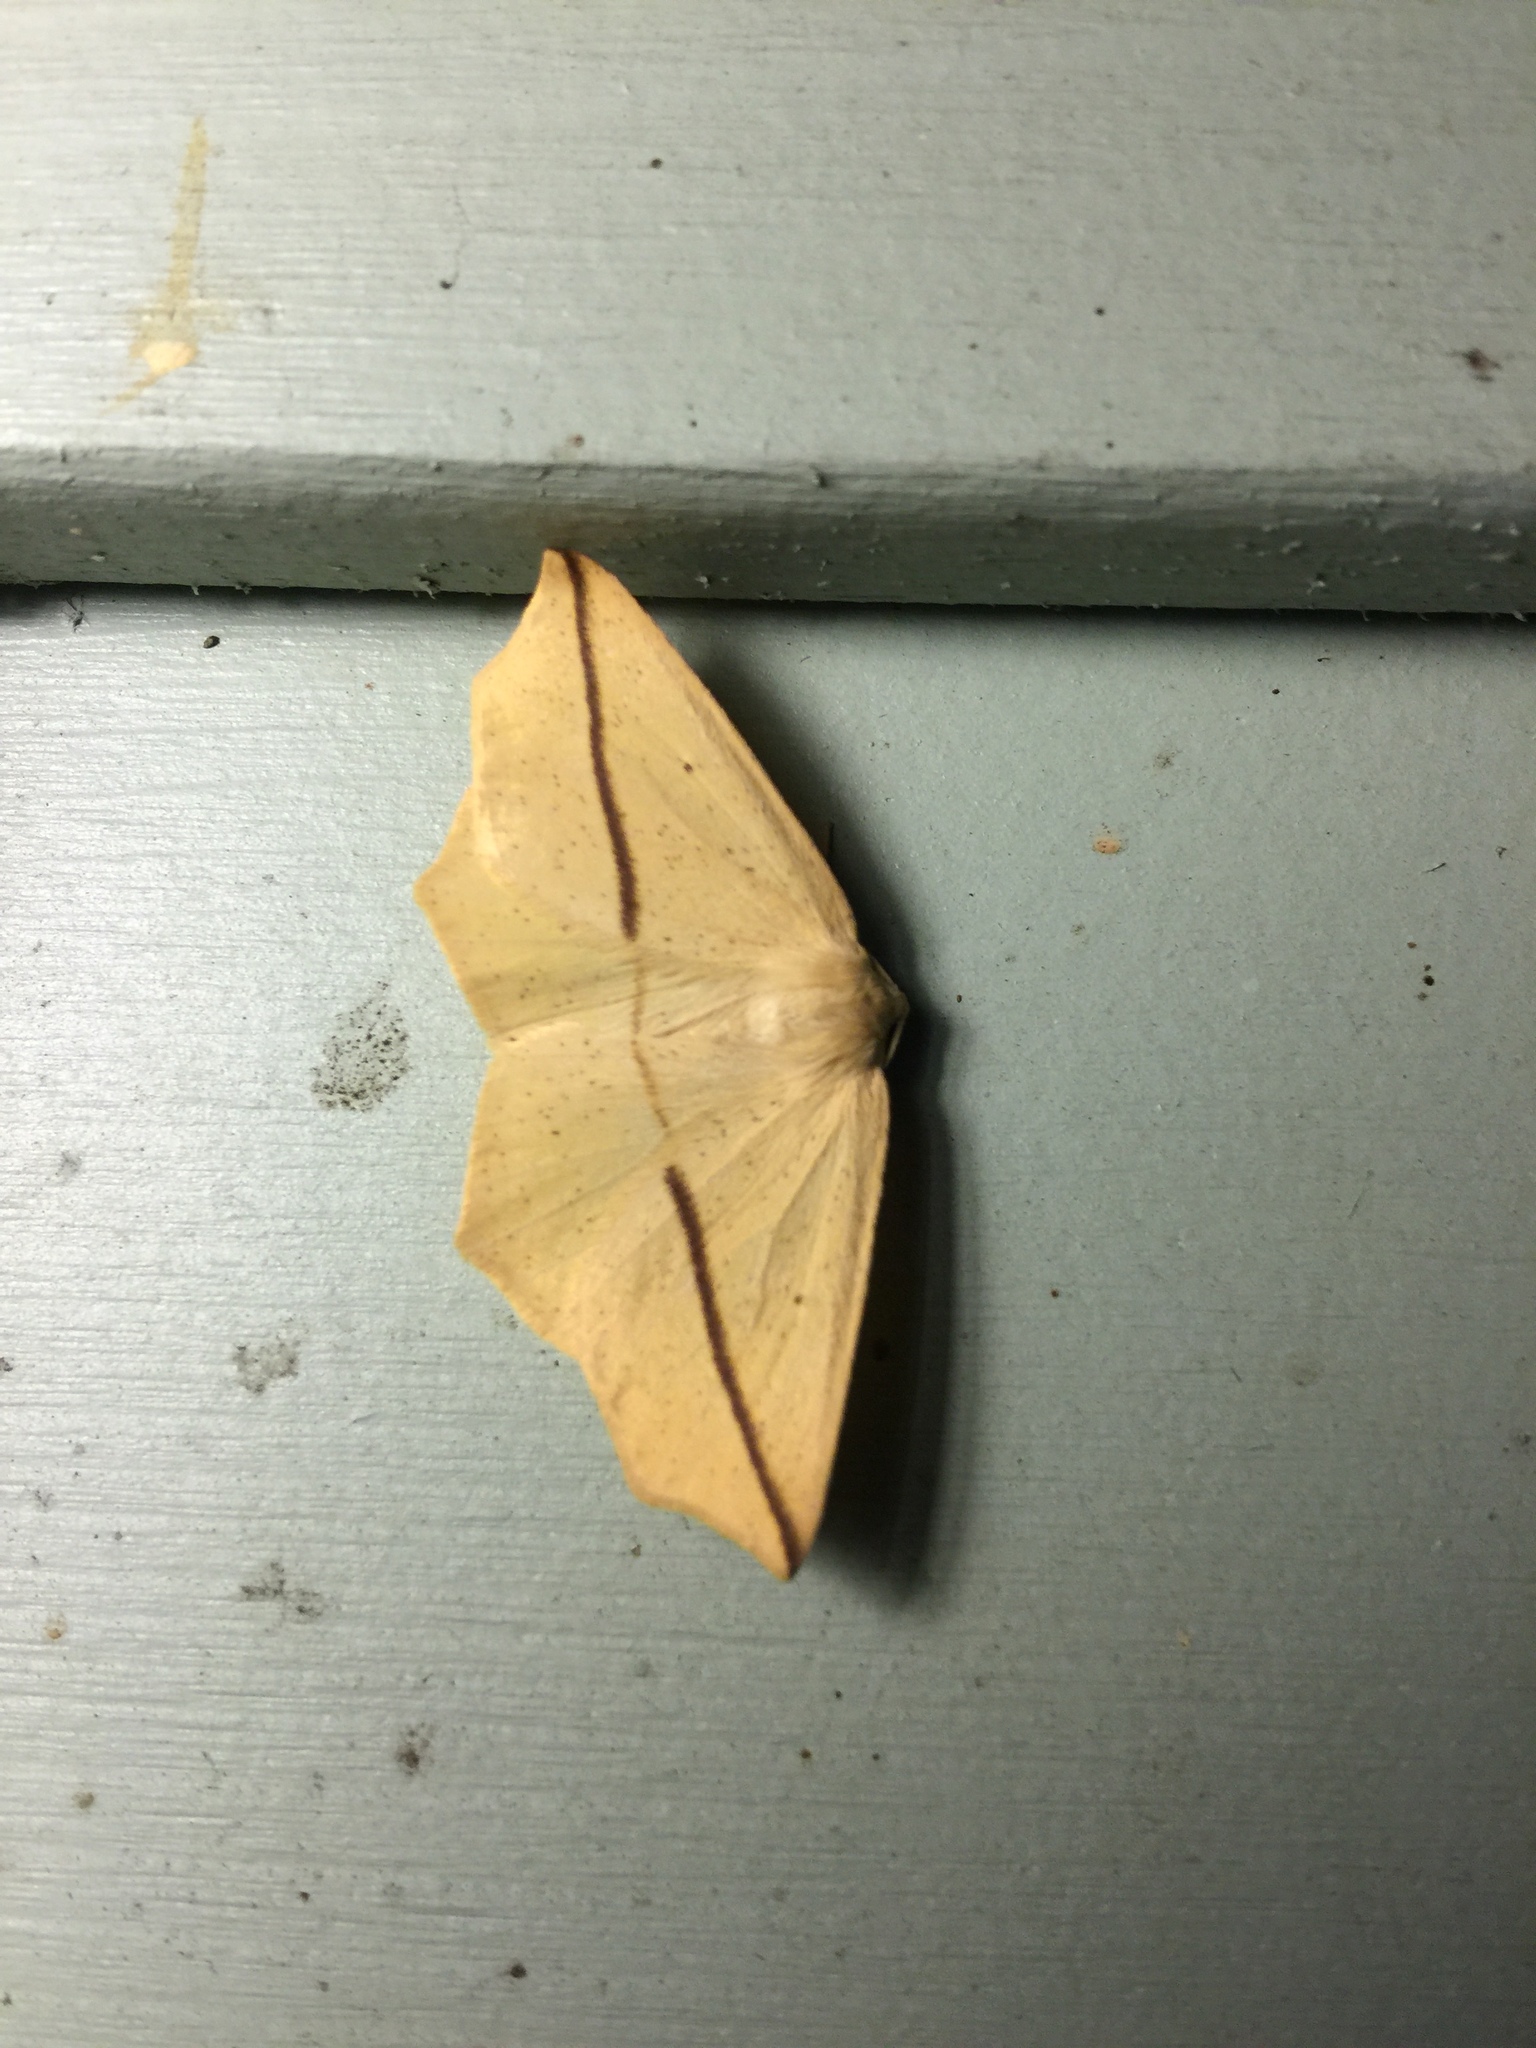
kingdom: Animalia
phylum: Arthropoda
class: Insecta
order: Lepidoptera
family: Geometridae
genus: Tetracis
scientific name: Tetracis crocallata
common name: Yellow slant-line
